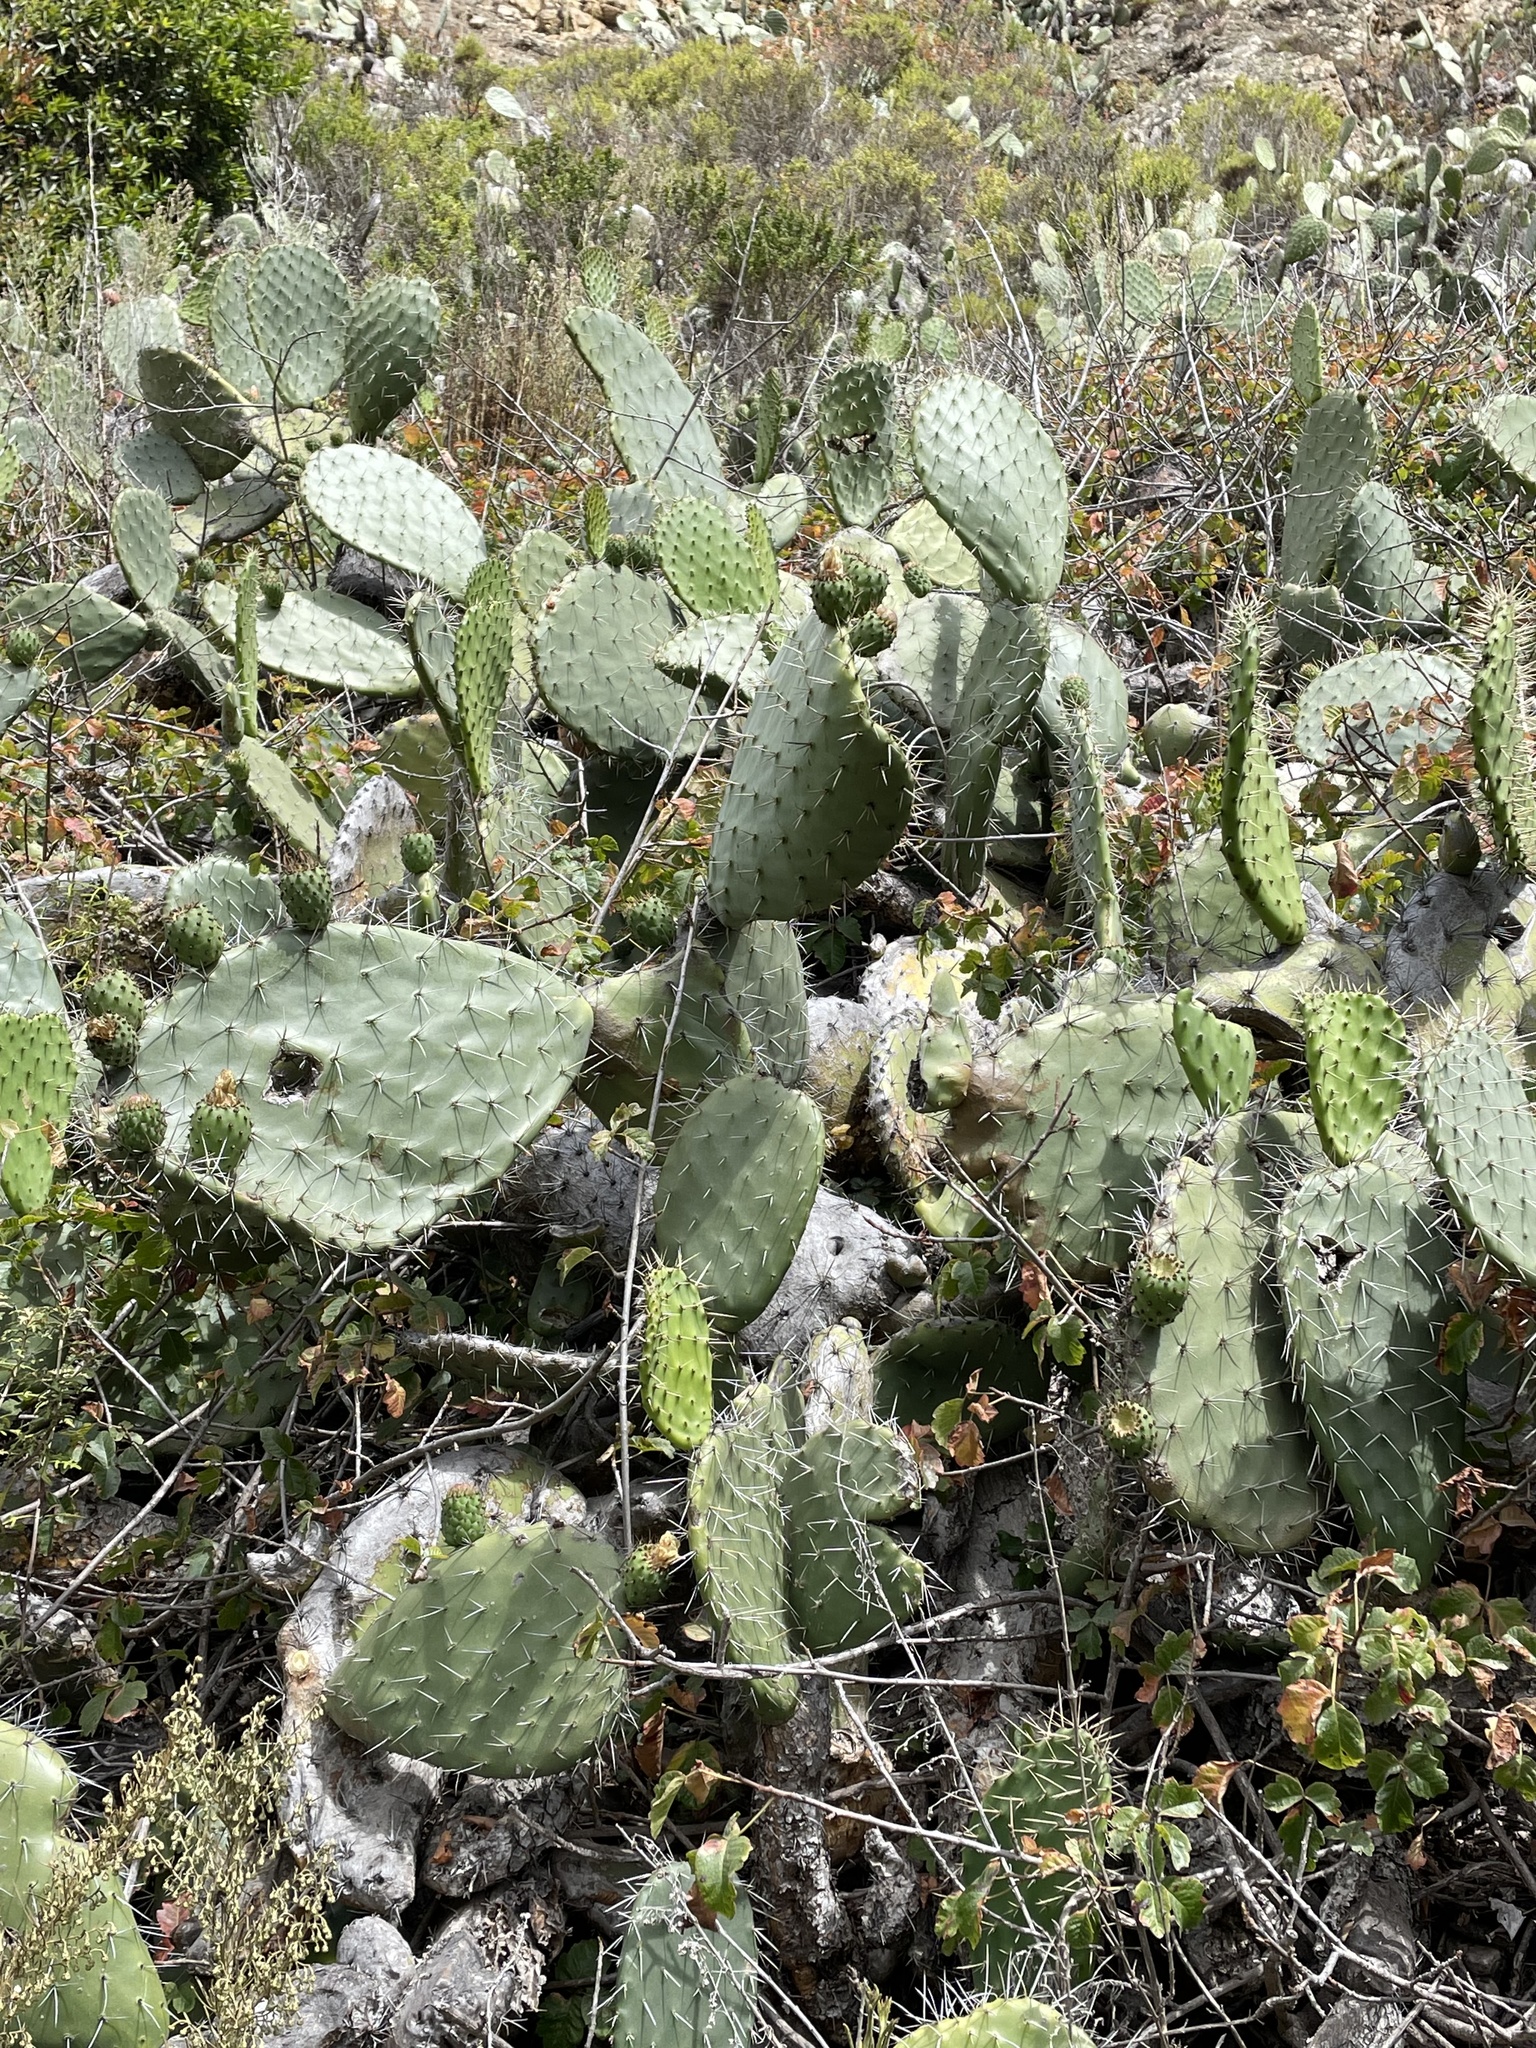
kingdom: Plantae
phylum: Tracheophyta
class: Magnoliopsida
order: Caryophyllales
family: Cactaceae
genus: Opuntia
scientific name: Opuntia ficus-indica
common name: Barbary fig
